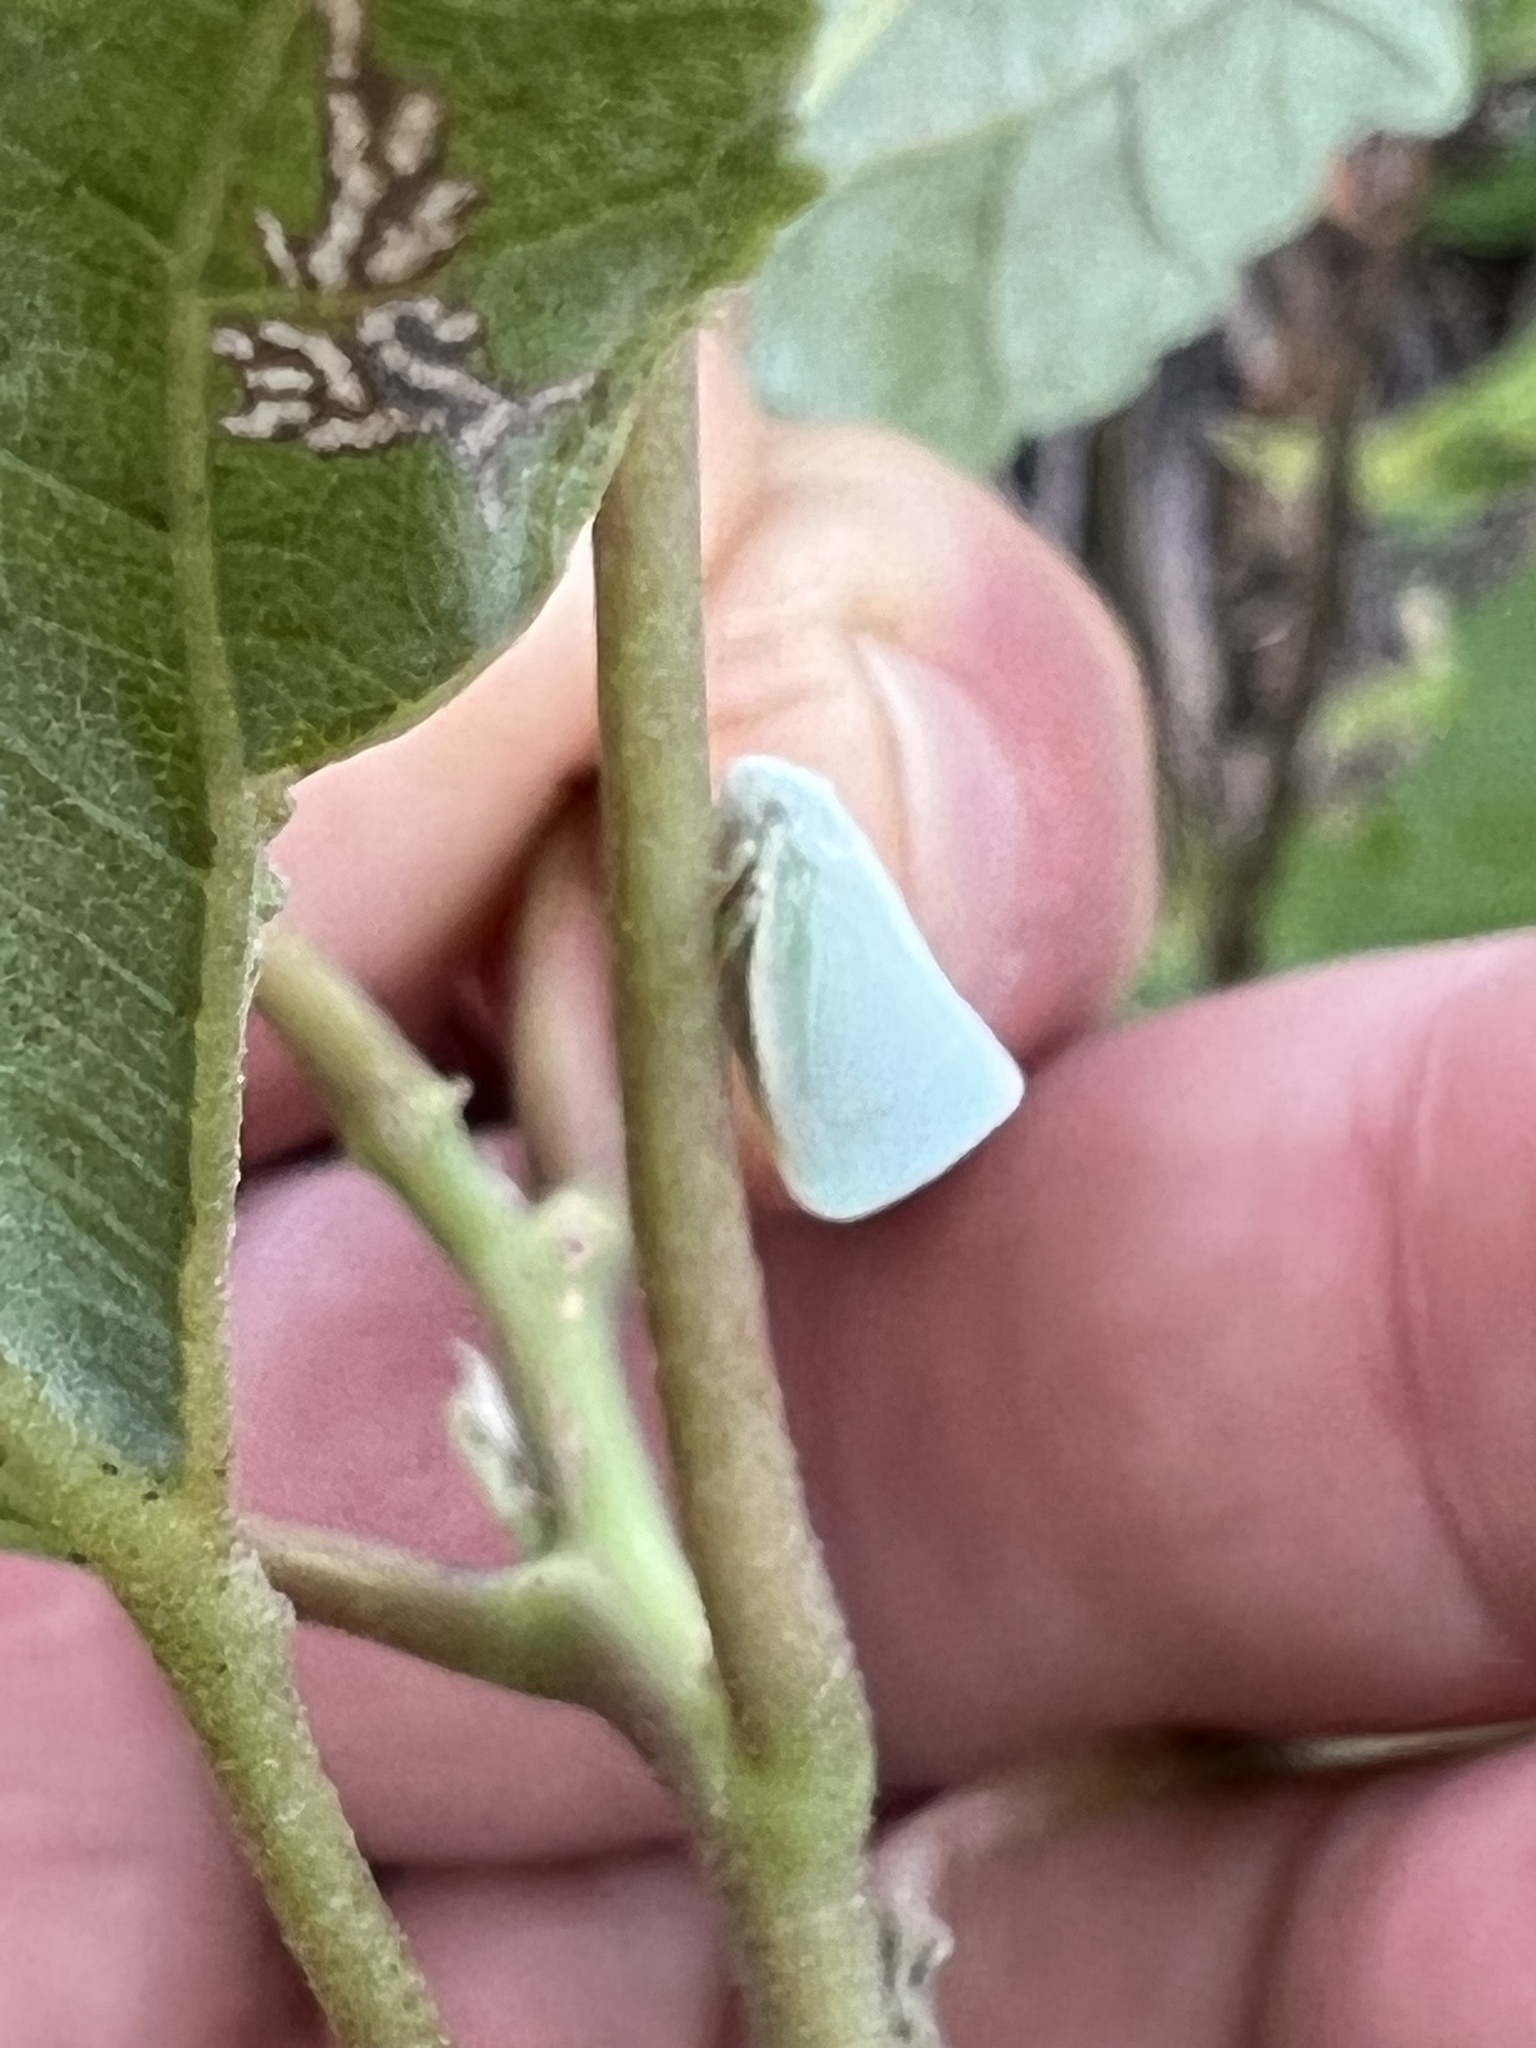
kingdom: Animalia
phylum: Arthropoda
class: Insecta
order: Hemiptera
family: Flatidae
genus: Flatormenis
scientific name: Flatormenis proxima
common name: Northern flatid planthopper
